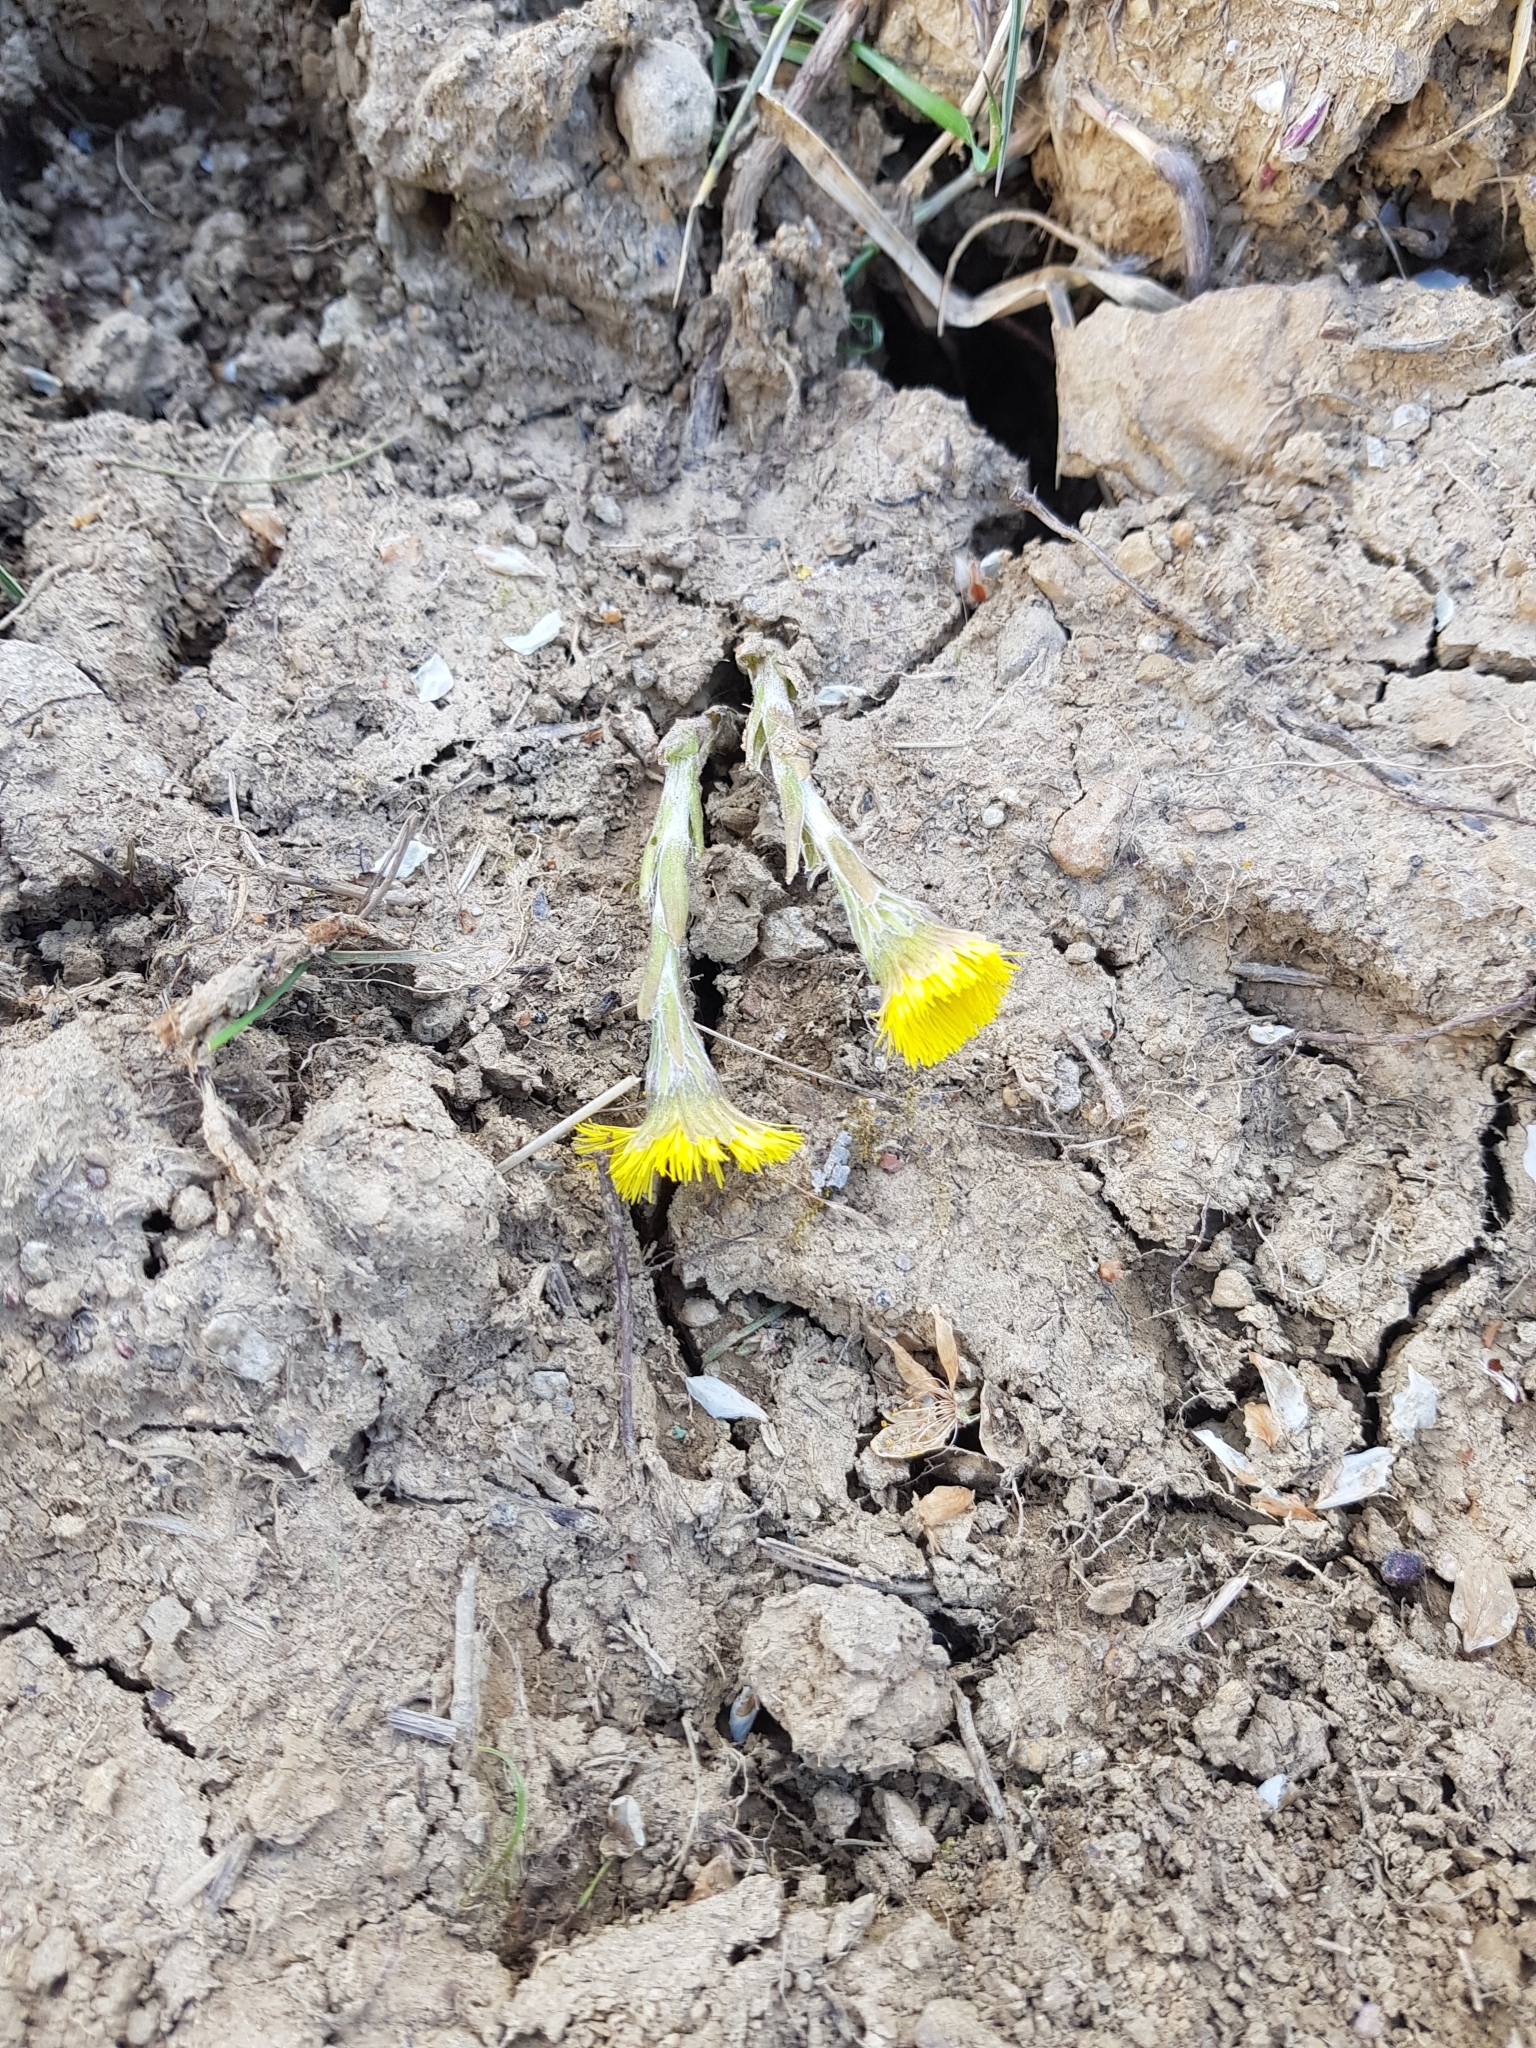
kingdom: Plantae
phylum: Tracheophyta
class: Magnoliopsida
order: Asterales
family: Asteraceae
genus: Tussilago
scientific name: Tussilago farfara
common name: Coltsfoot
